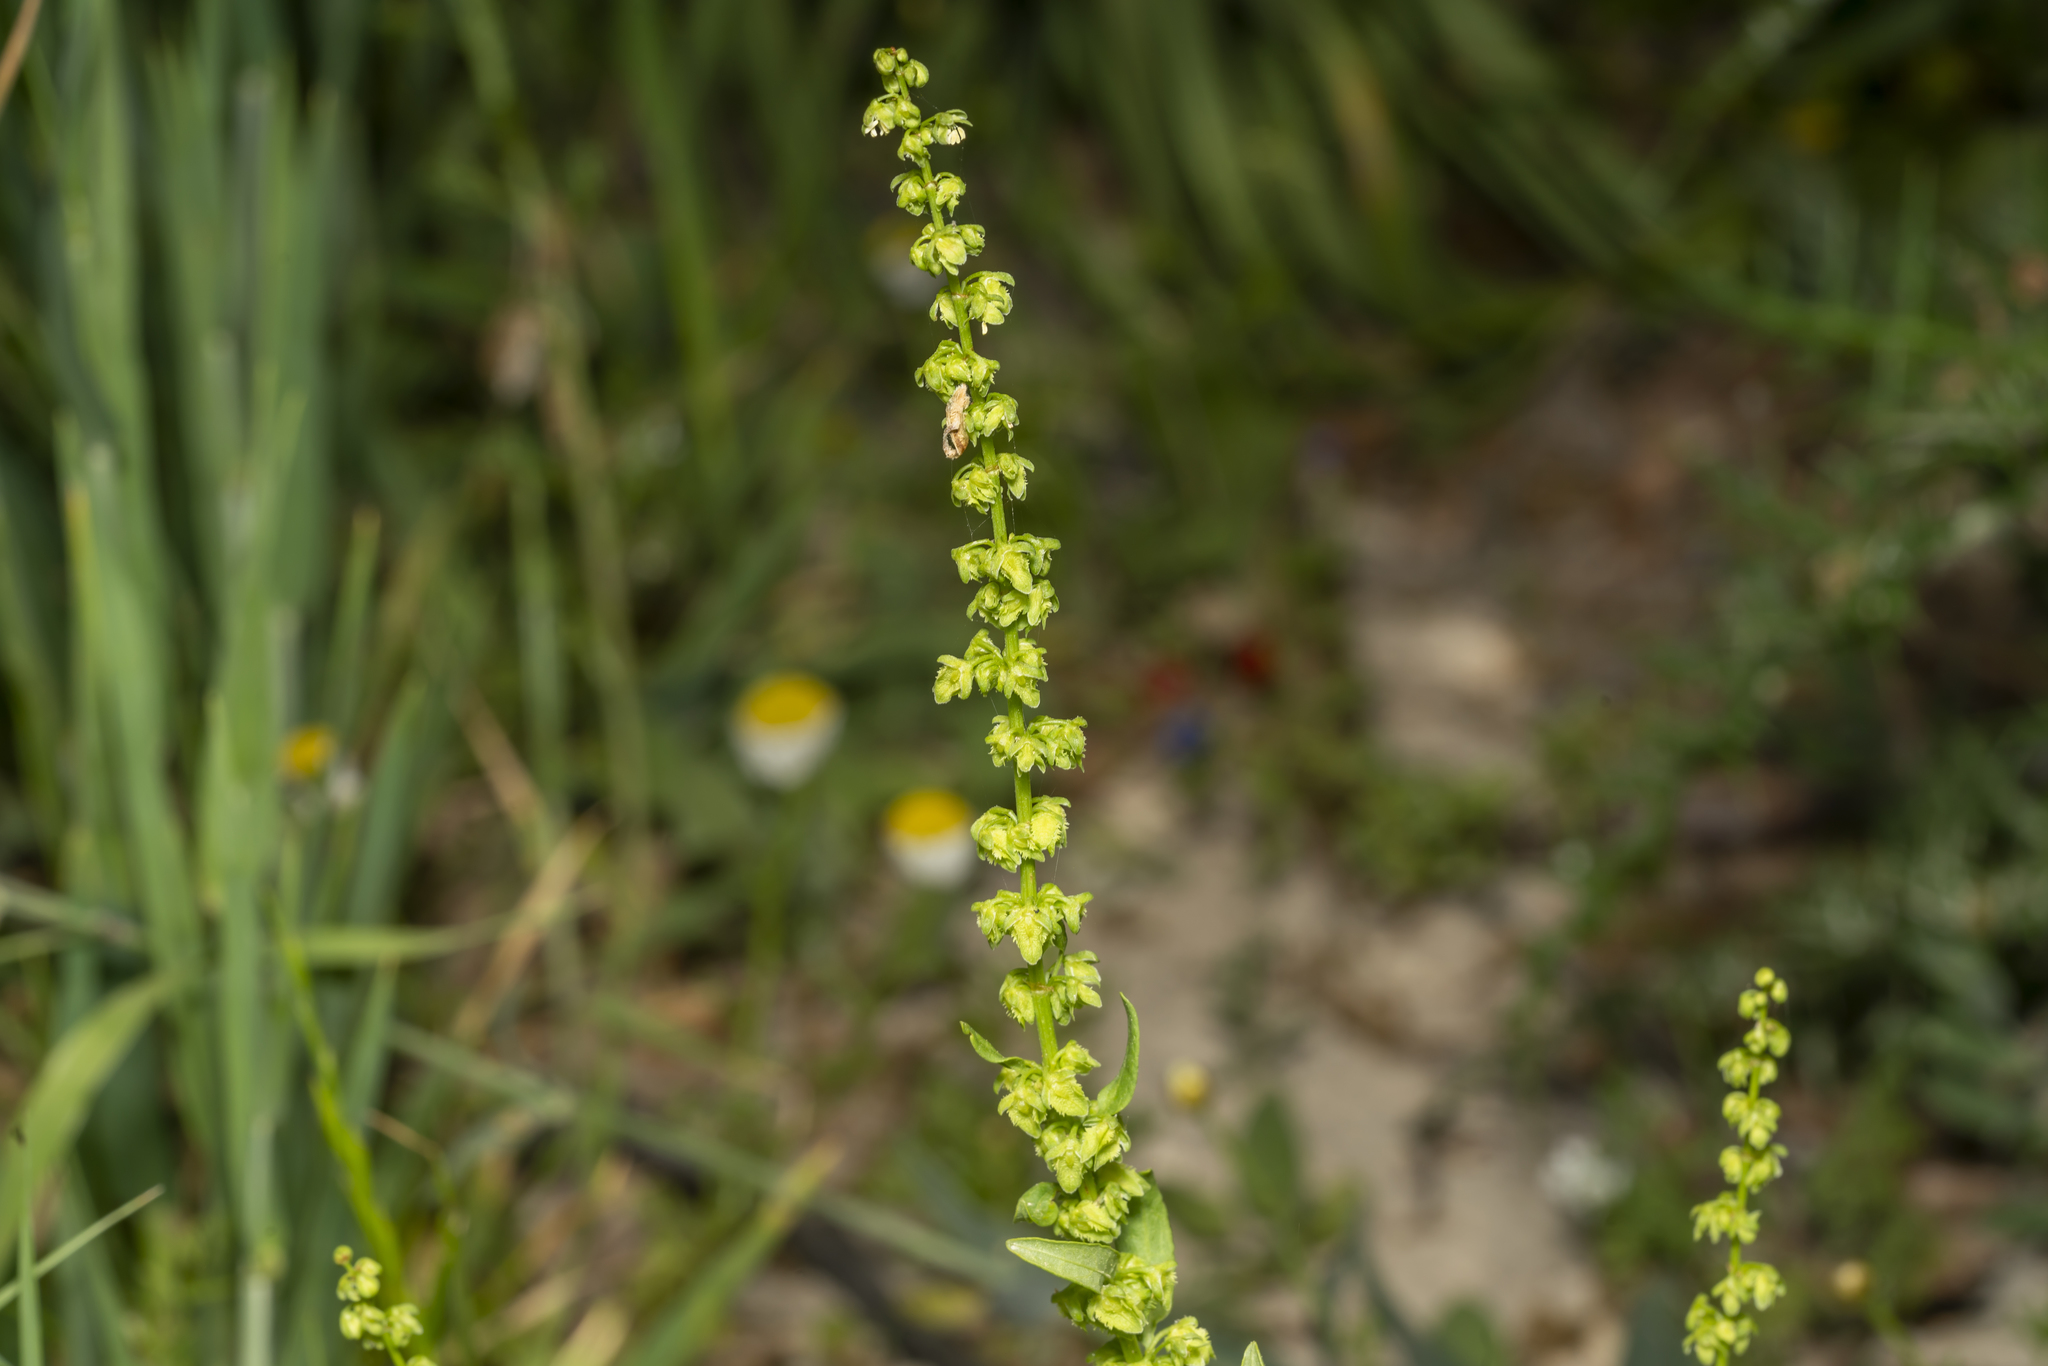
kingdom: Plantae
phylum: Tracheophyta
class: Magnoliopsida
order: Caryophyllales
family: Polygonaceae
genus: Rumex
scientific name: Rumex pulcher
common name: Fiddle dock
